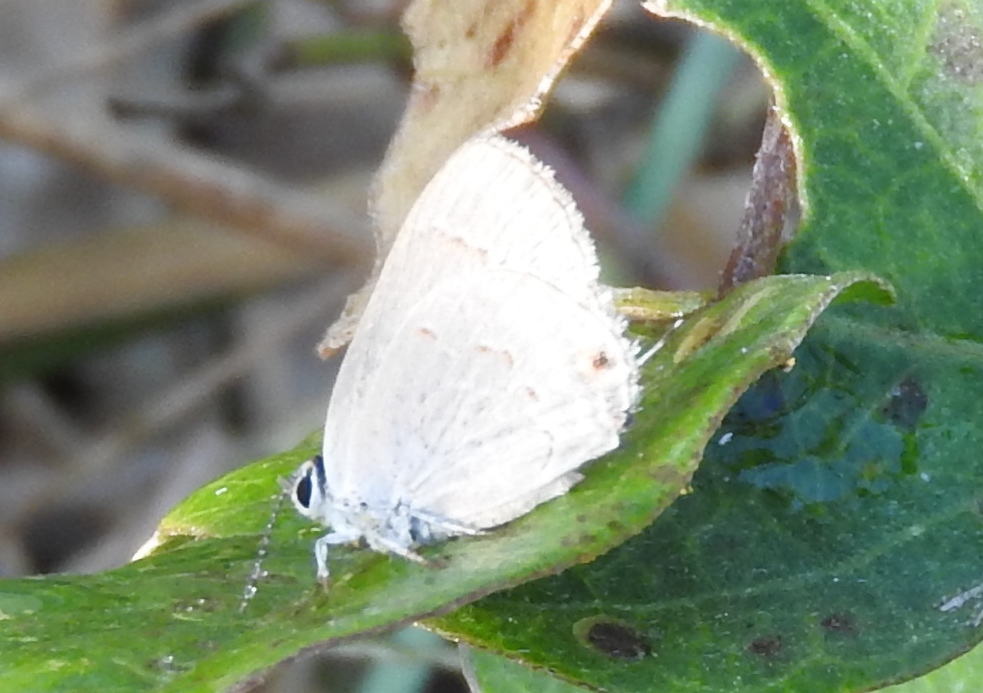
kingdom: Animalia
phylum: Arthropoda
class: Insecta
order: Lepidoptera
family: Lycaenidae
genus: Thecla
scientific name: Thecla rufofusca
